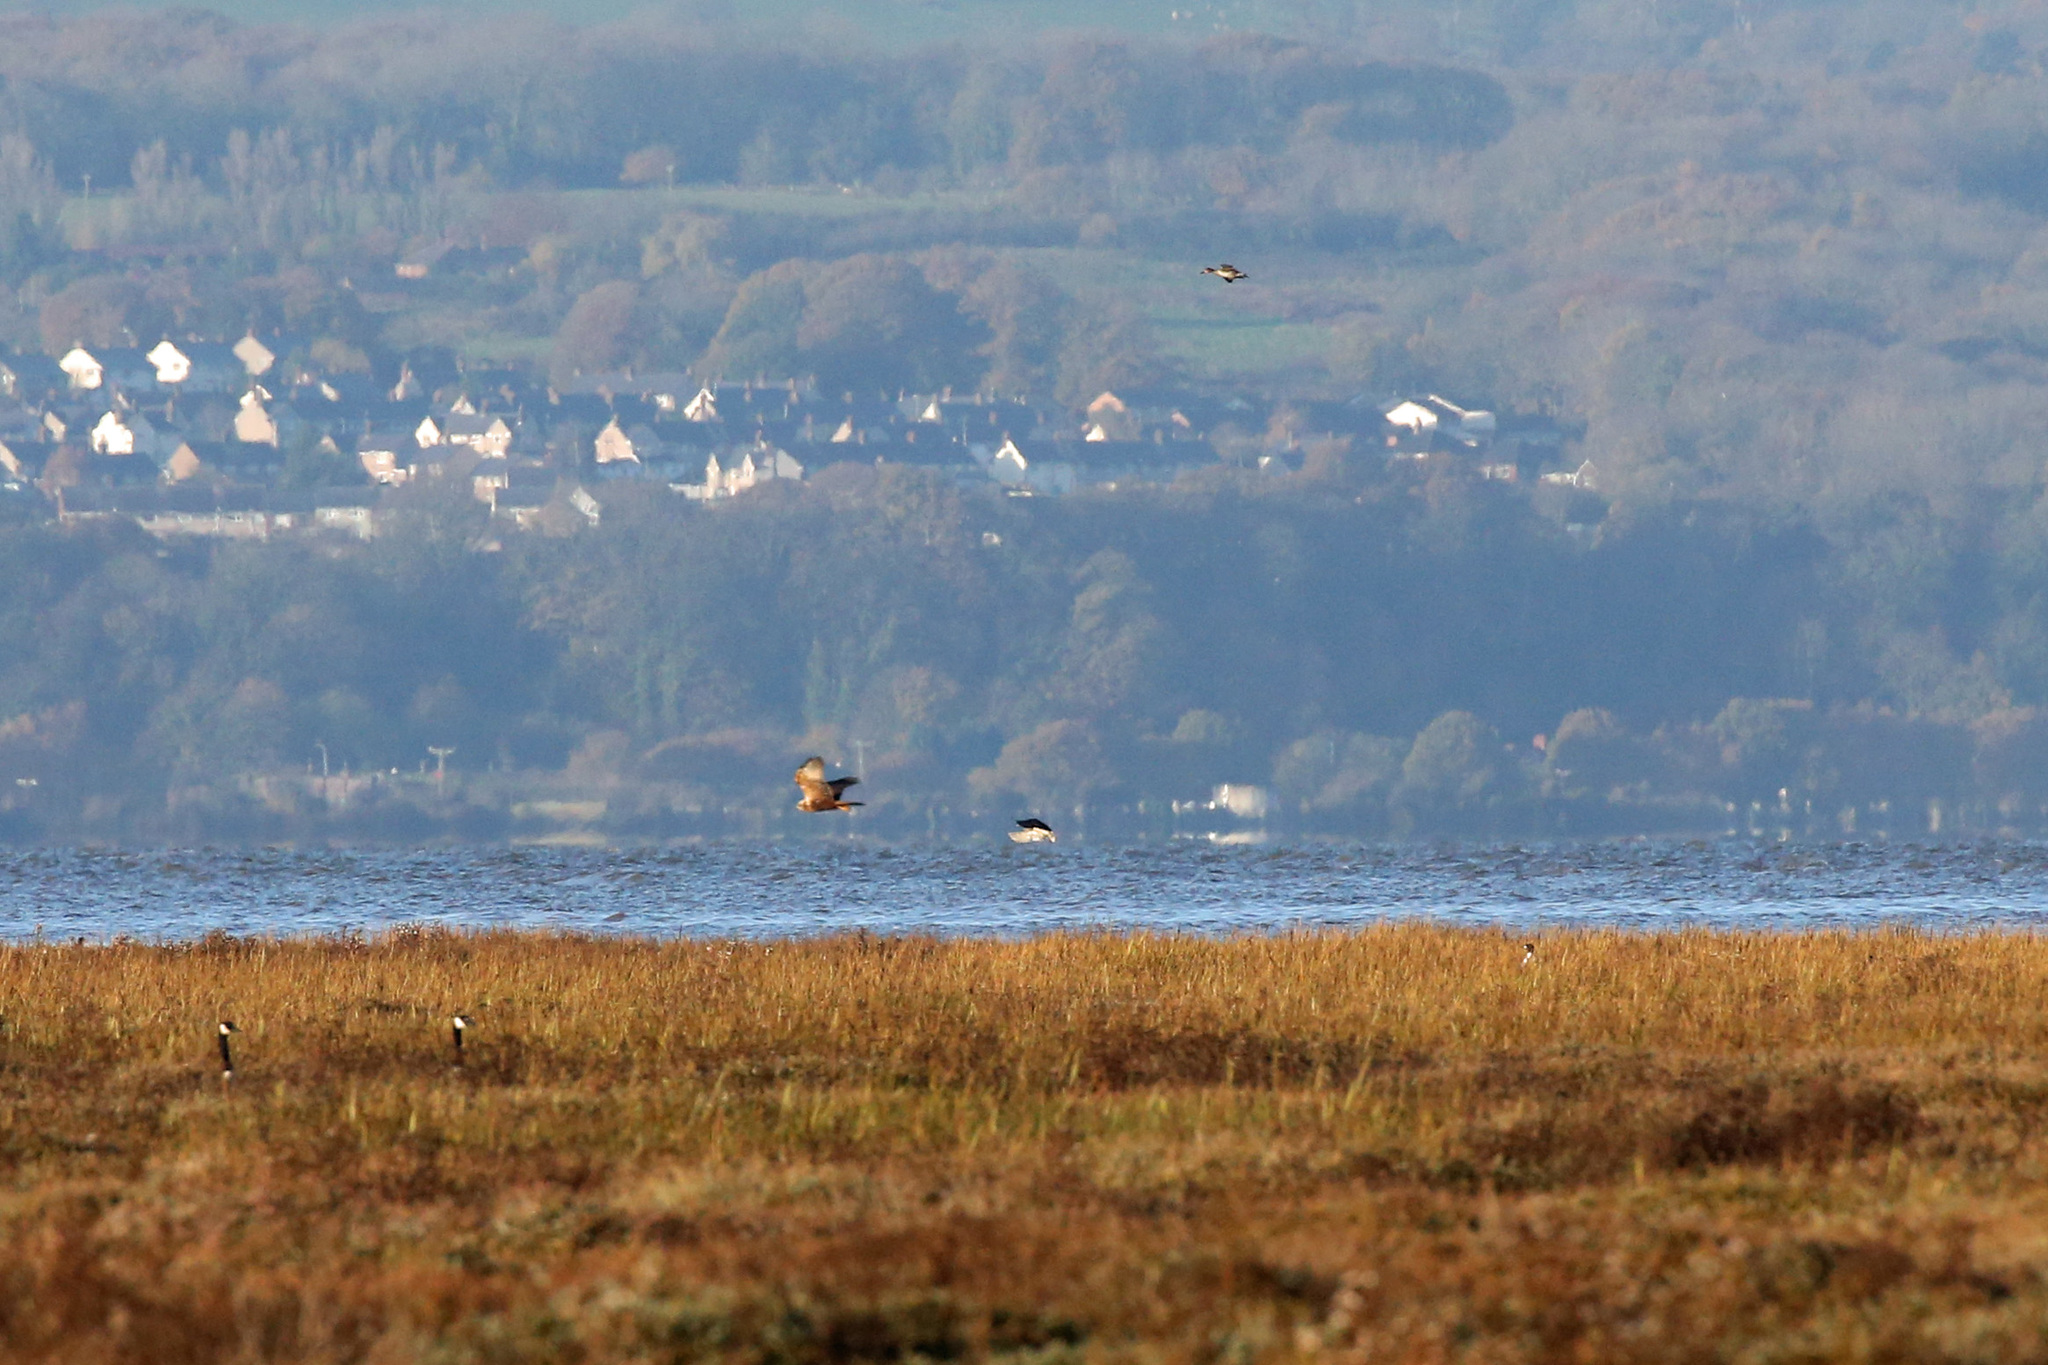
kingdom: Animalia
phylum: Chordata
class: Aves
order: Accipitriformes
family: Accipitridae
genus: Circus
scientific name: Circus aeruginosus
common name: Western marsh harrier
